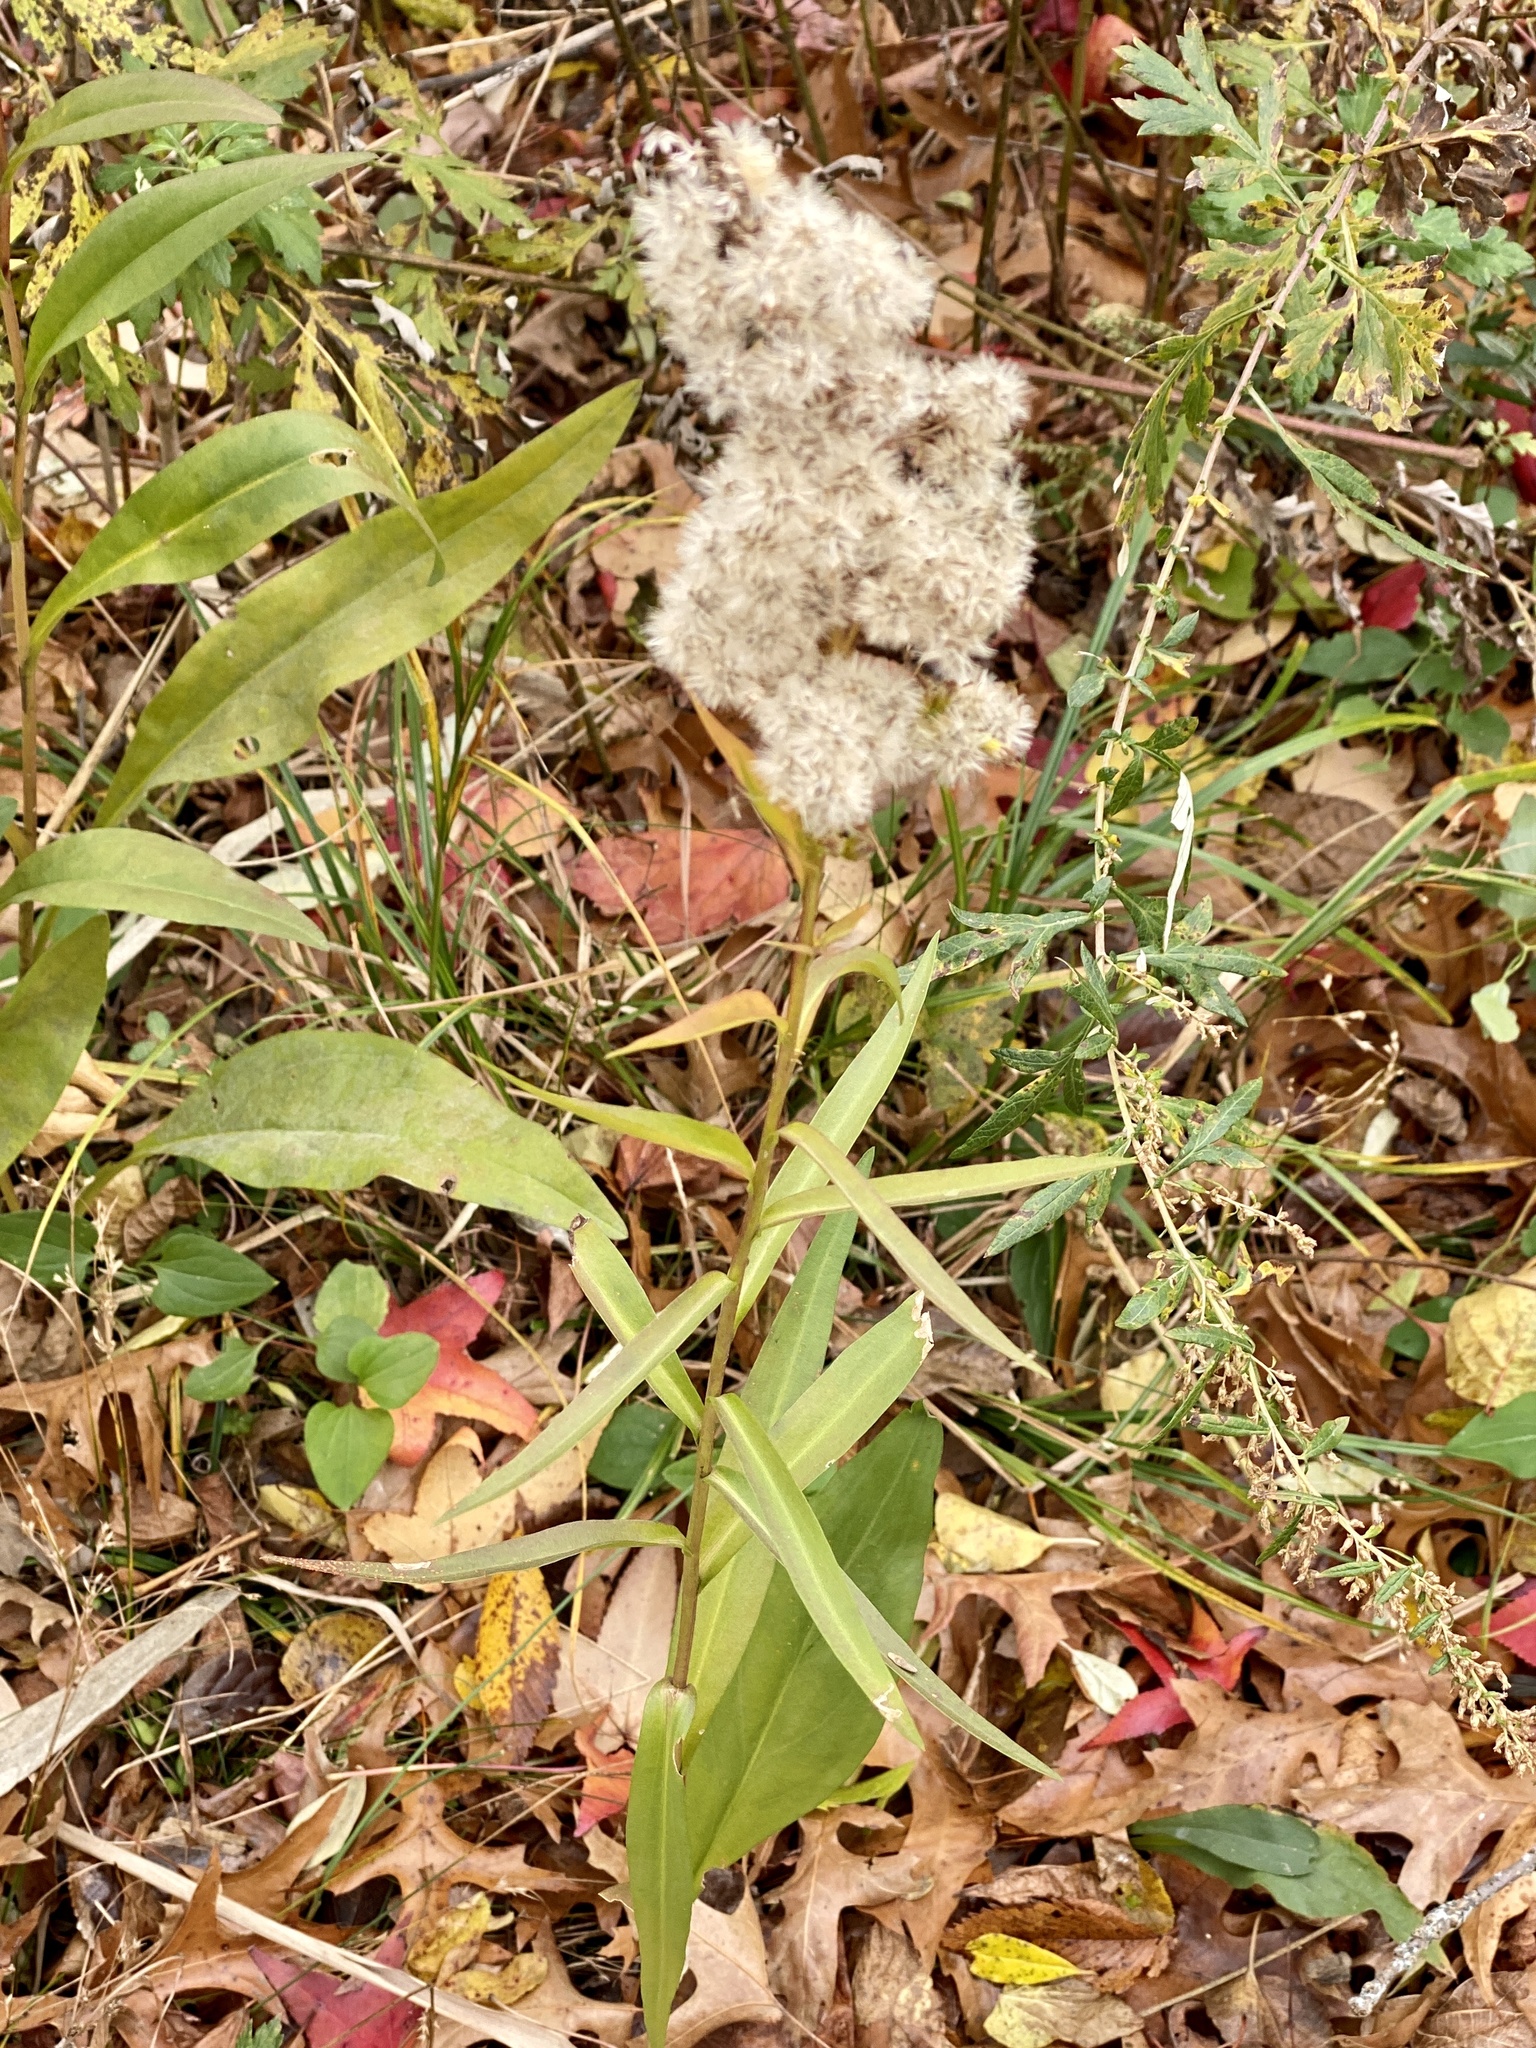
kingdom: Plantae
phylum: Tracheophyta
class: Magnoliopsida
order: Asterales
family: Asteraceae
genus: Solidago
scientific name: Solidago sempervirens
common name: Salt-marsh goldenrod
